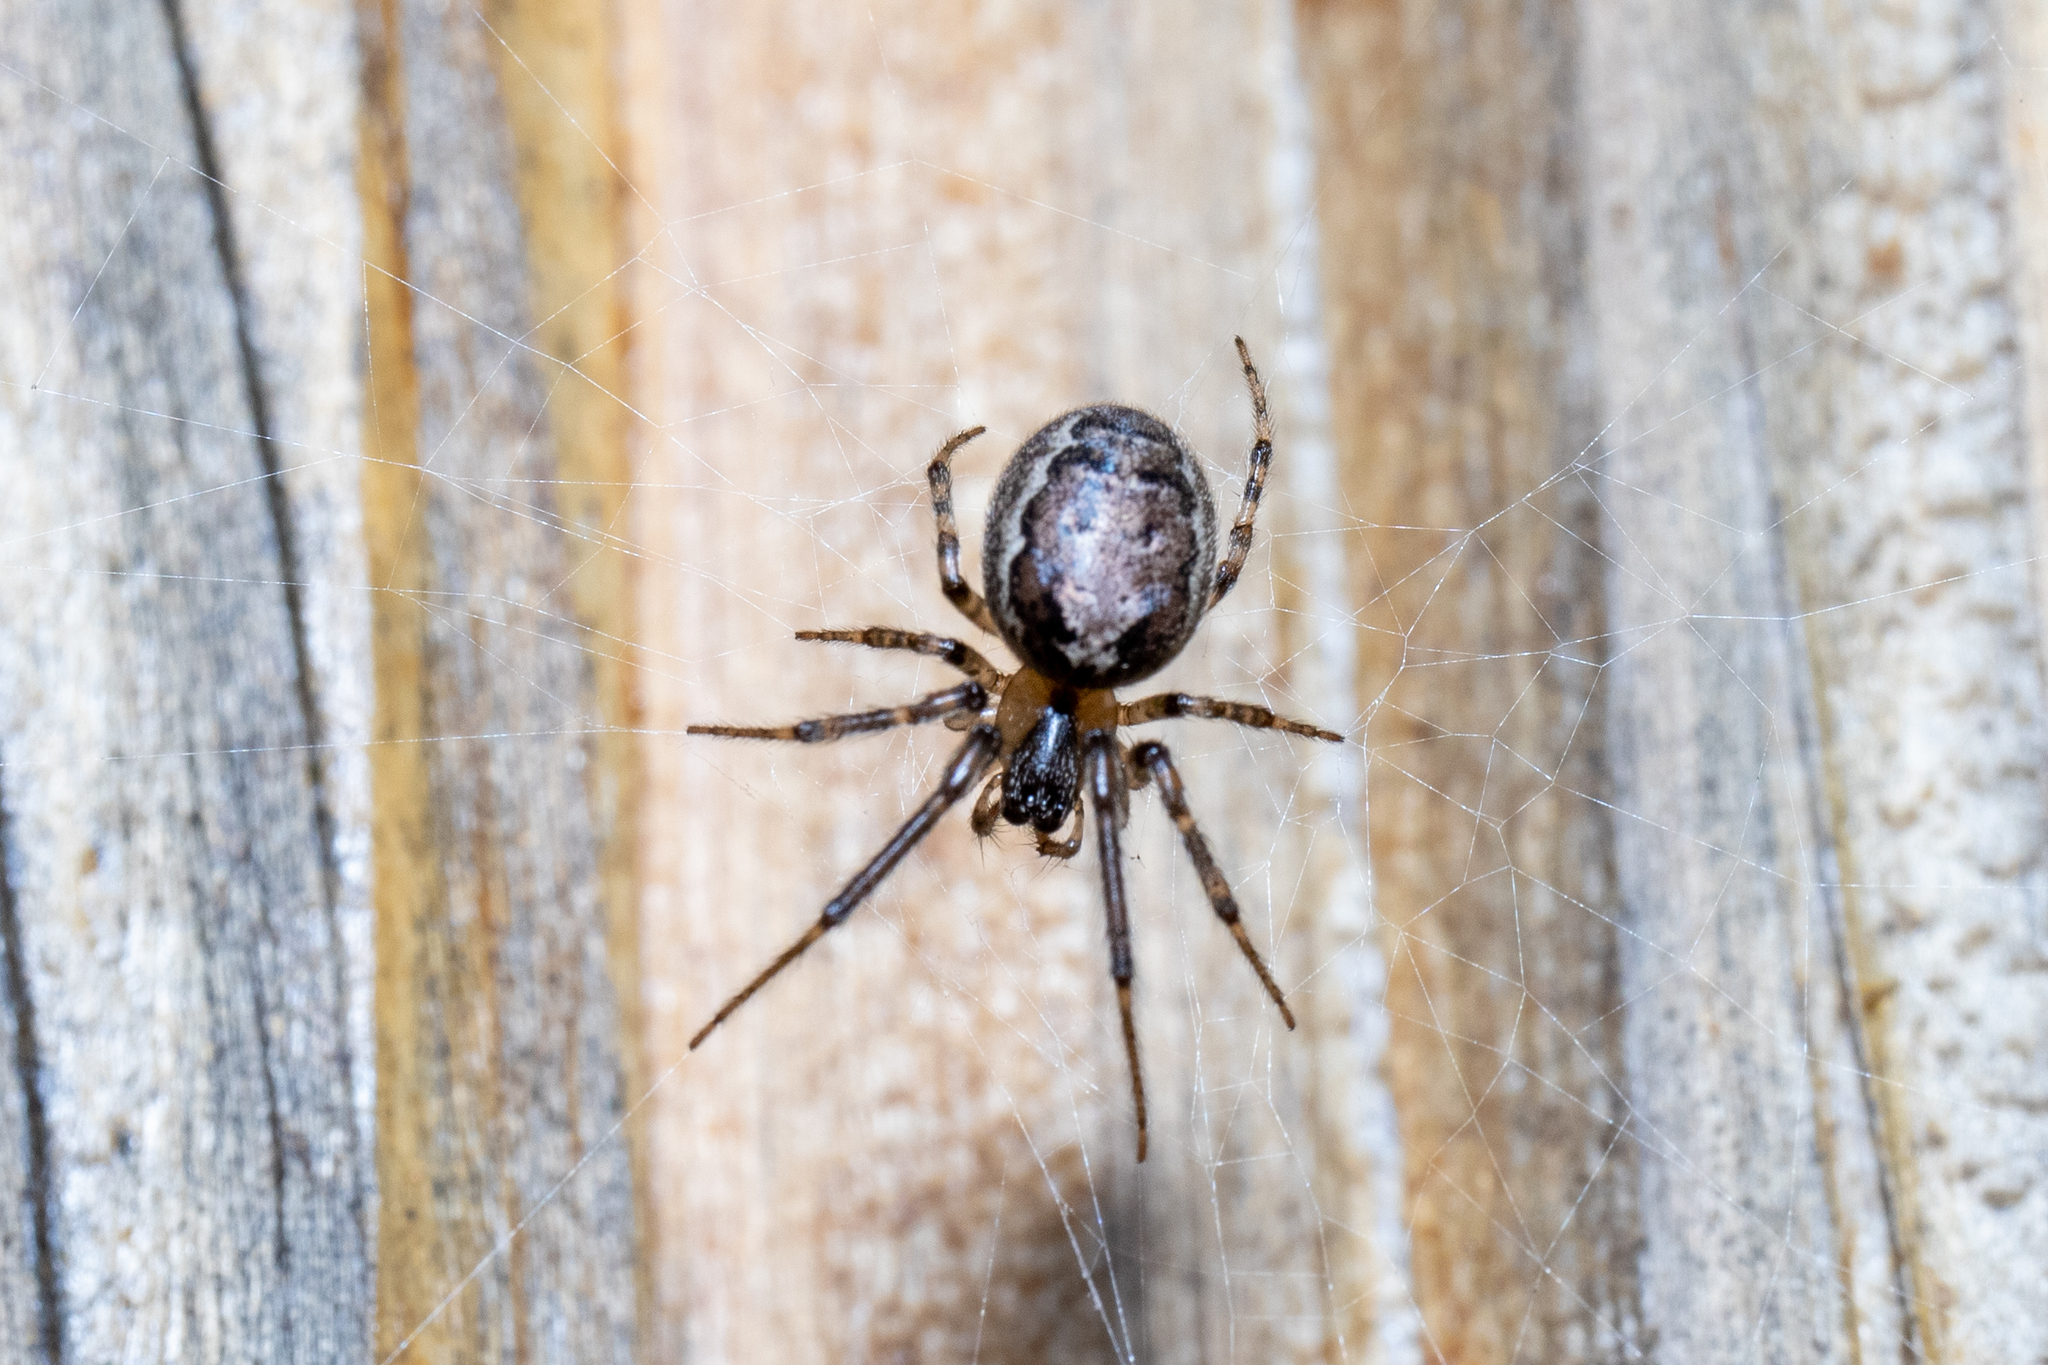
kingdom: Animalia
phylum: Arthropoda
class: Arachnida
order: Araneae
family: Araneidae
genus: Zygiella
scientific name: Zygiella x-notata
